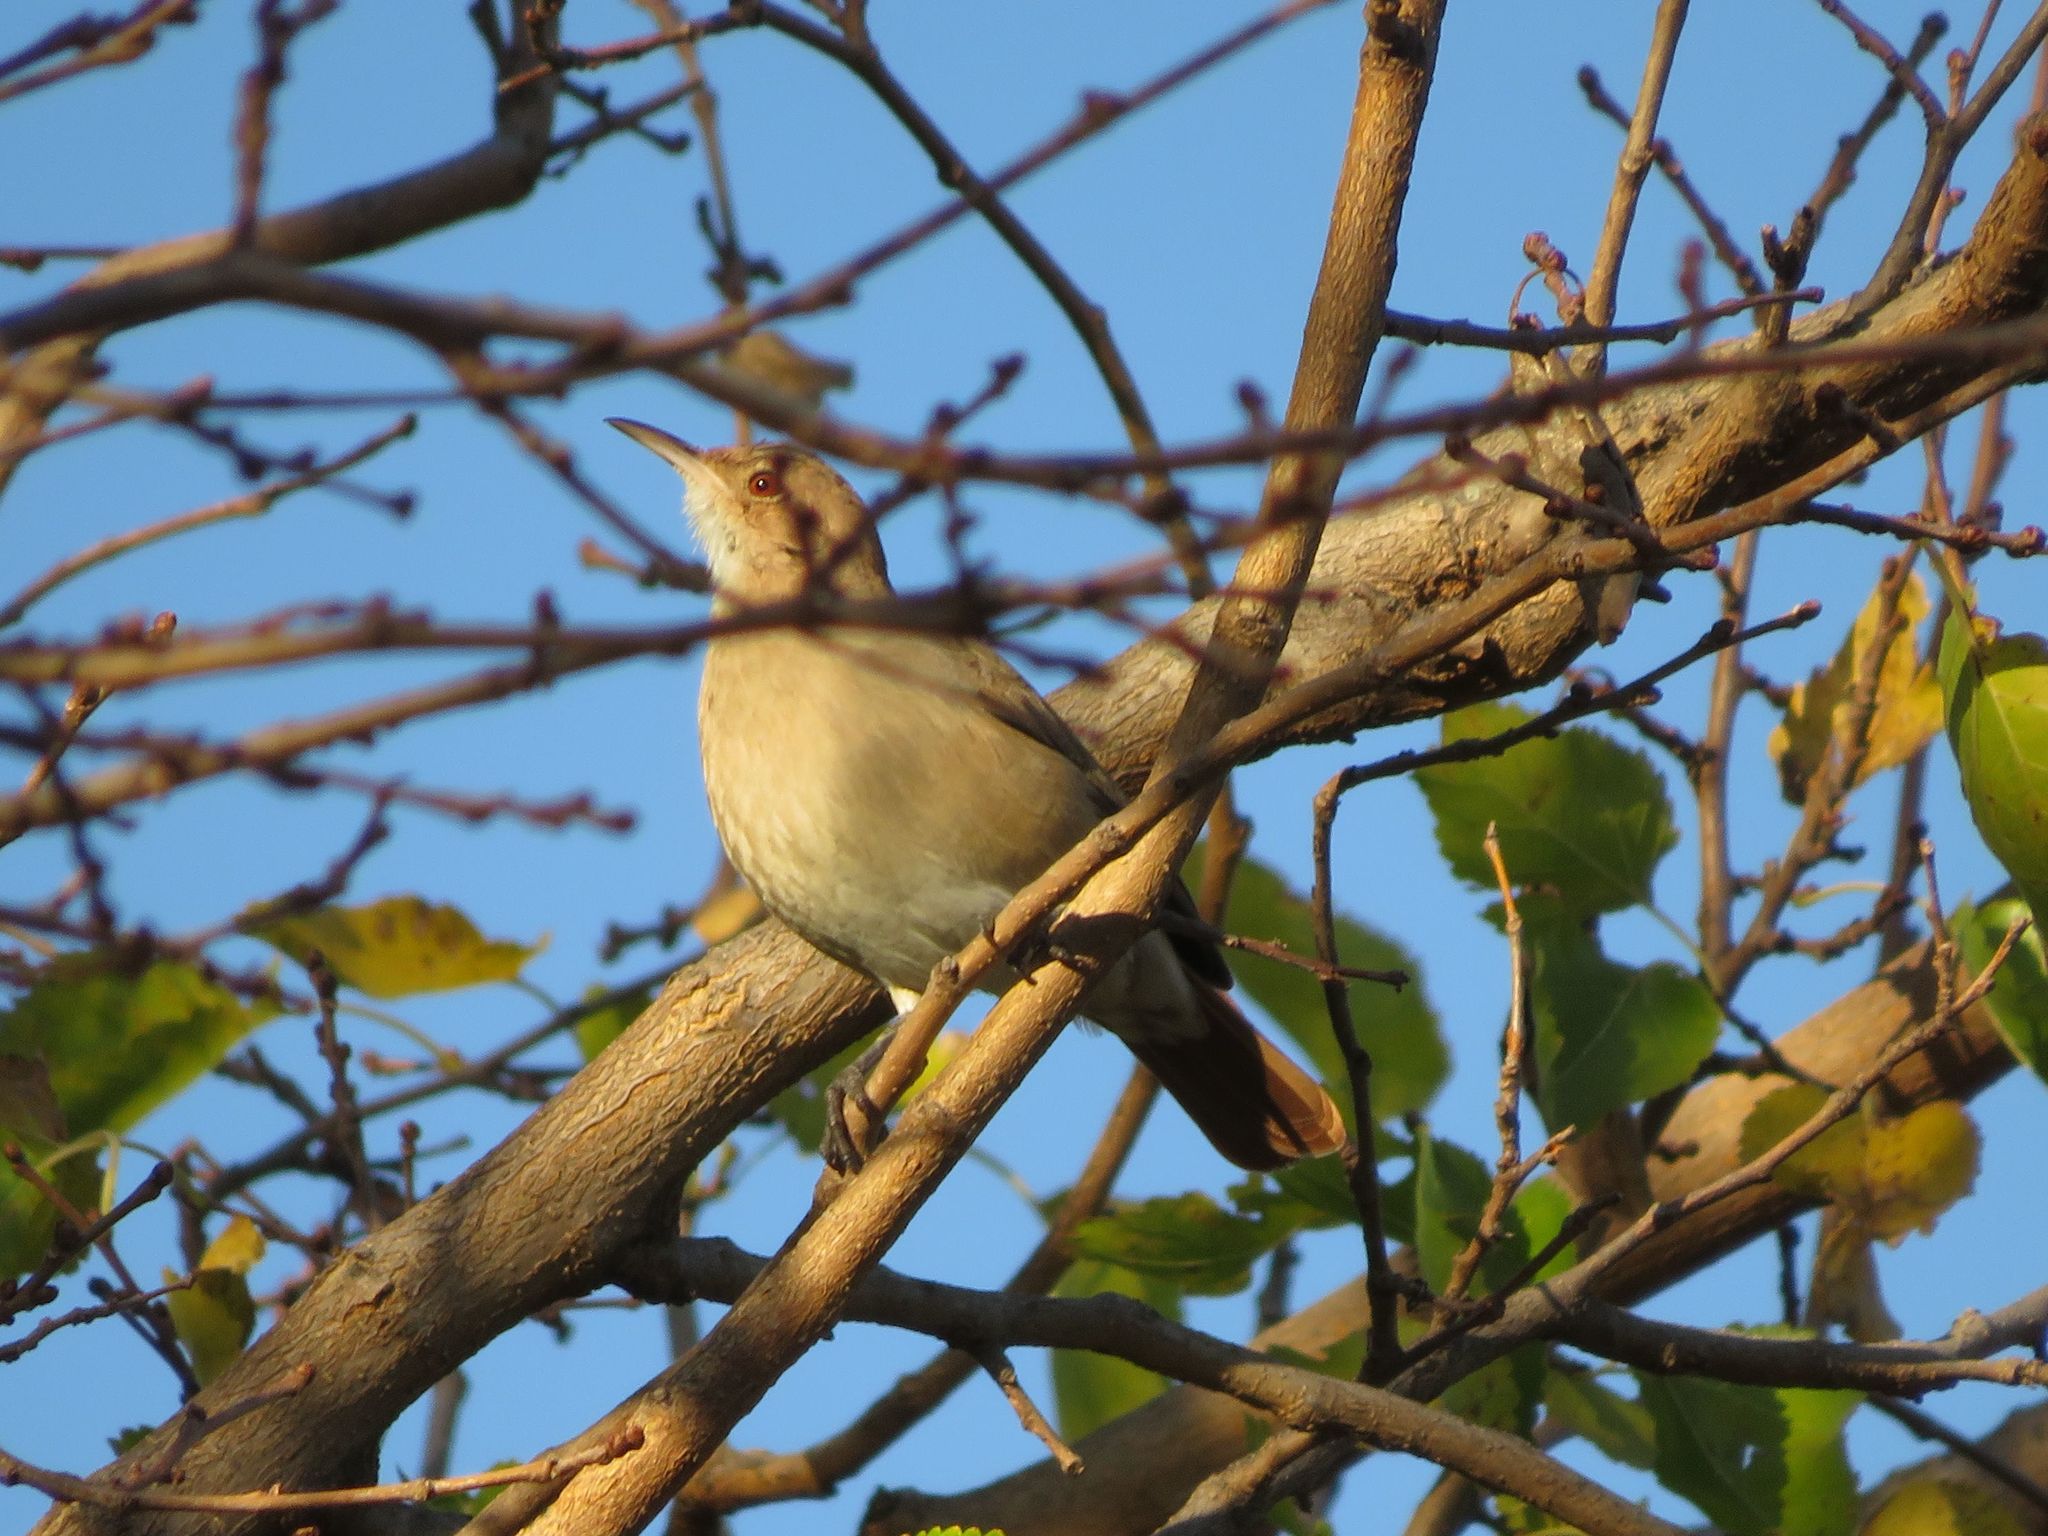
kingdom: Animalia
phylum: Chordata
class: Aves
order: Passeriformes
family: Furnariidae
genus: Furnarius
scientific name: Furnarius rufus
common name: Rufous hornero
